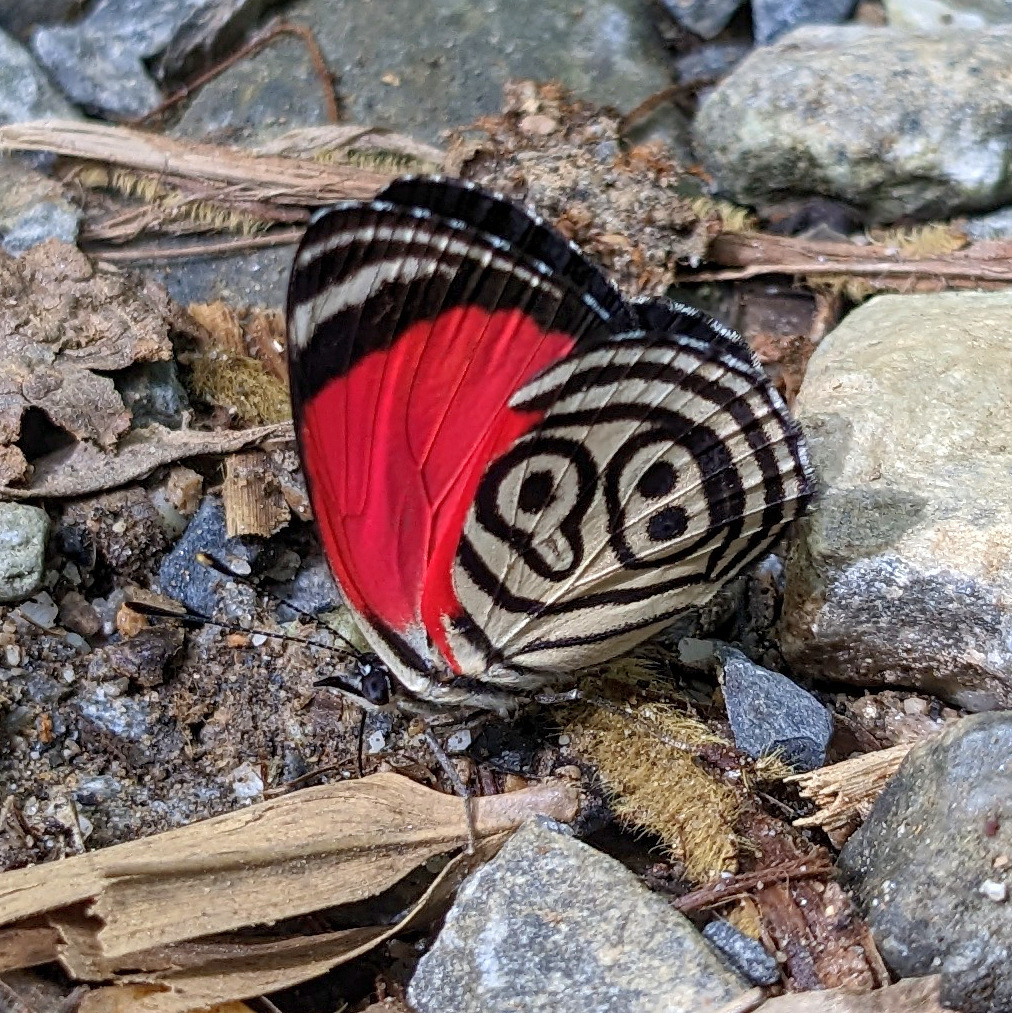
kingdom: Animalia
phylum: Arthropoda
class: Insecta
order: Lepidoptera
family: Nymphalidae
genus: Diaethria
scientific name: Diaethria clymena
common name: Widespread eighty-eight
